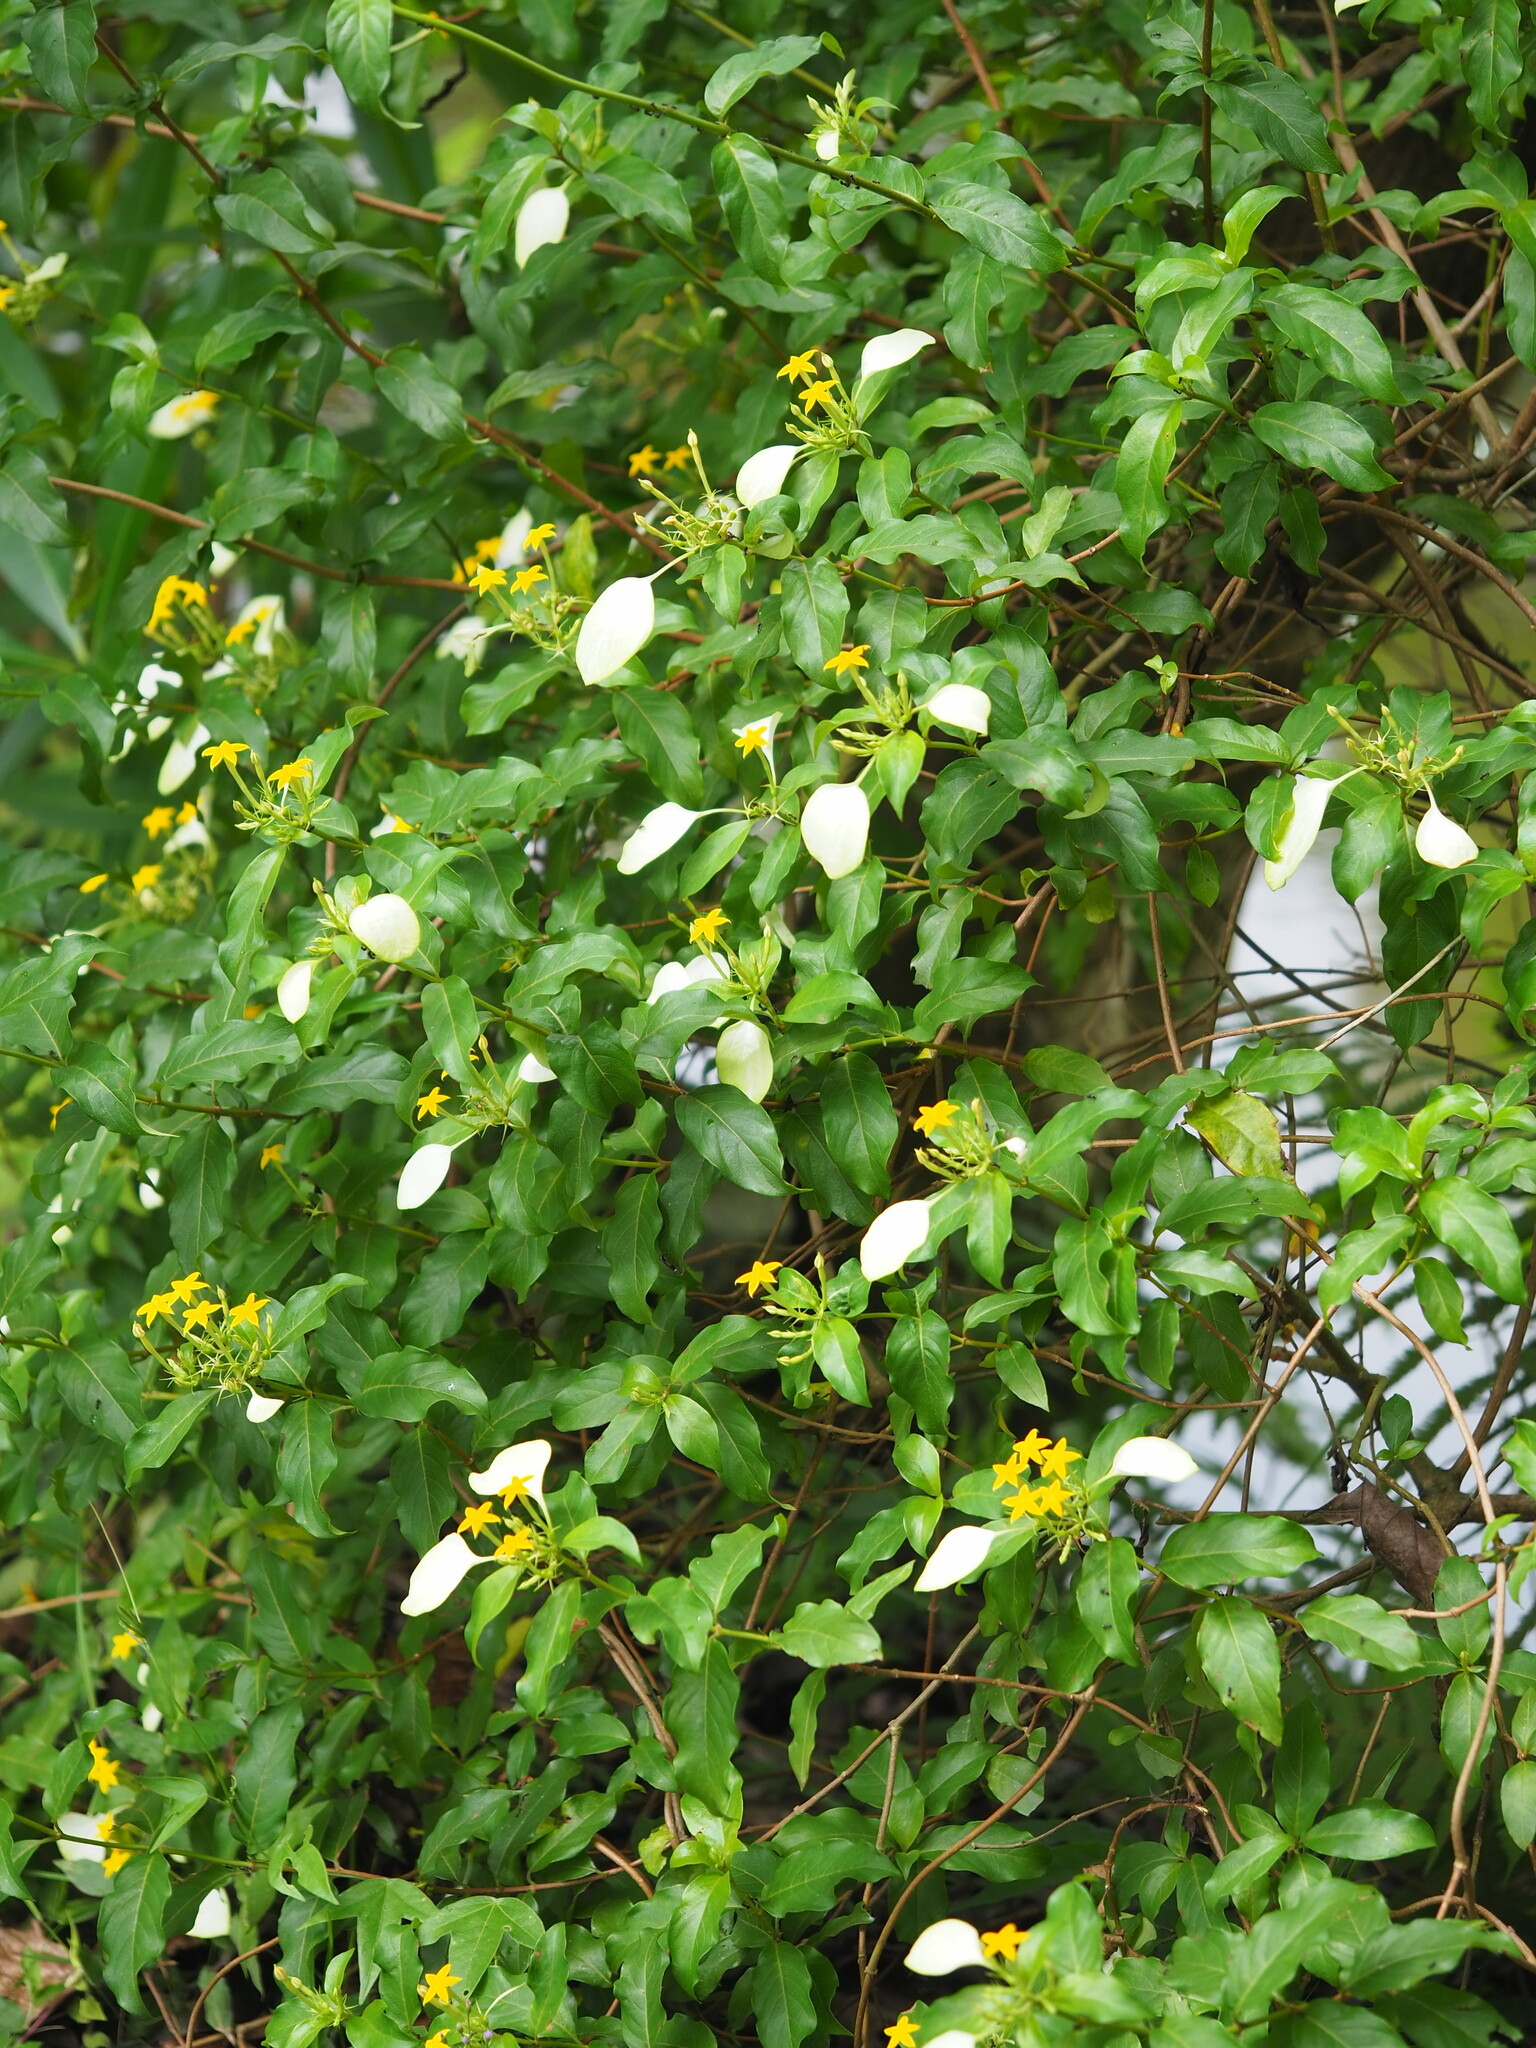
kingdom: Plantae
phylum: Tracheophyta
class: Magnoliopsida
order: Gentianales
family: Rubiaceae
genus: Mussaenda
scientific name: Mussaenda formosana
